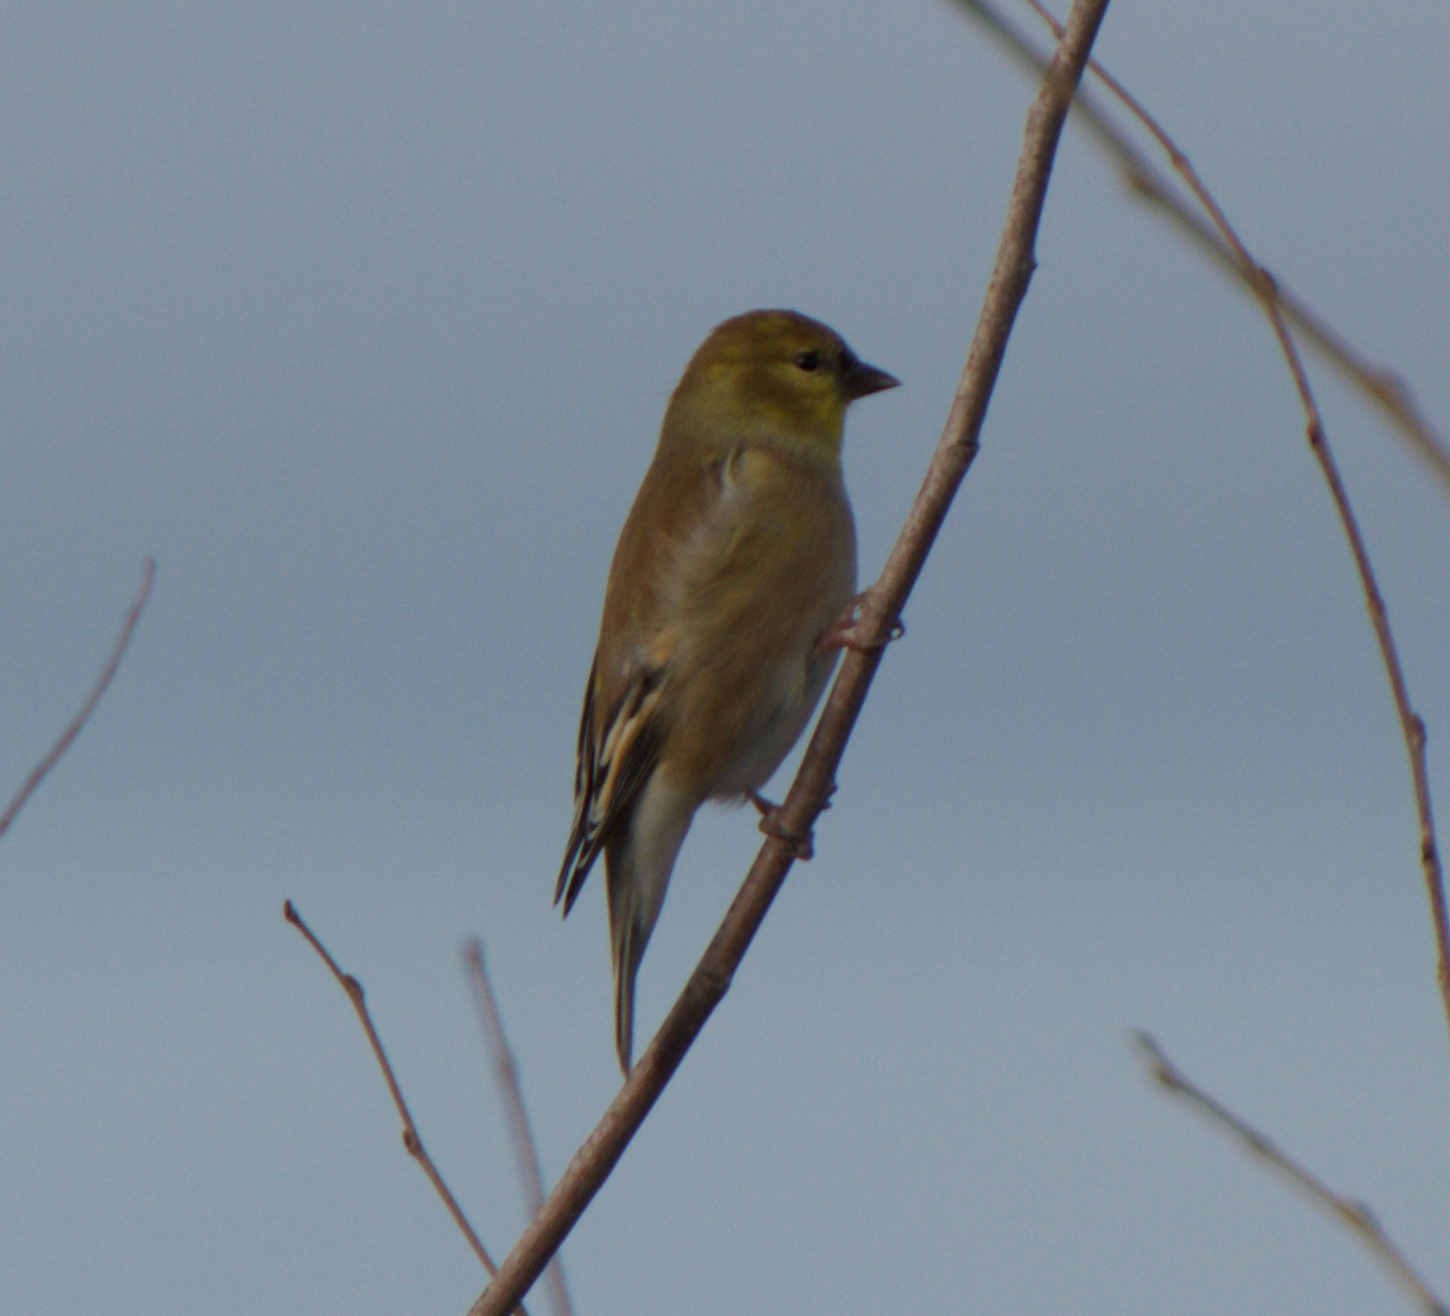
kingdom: Animalia
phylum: Chordata
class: Aves
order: Passeriformes
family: Fringillidae
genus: Spinus
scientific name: Spinus tristis
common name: American goldfinch
